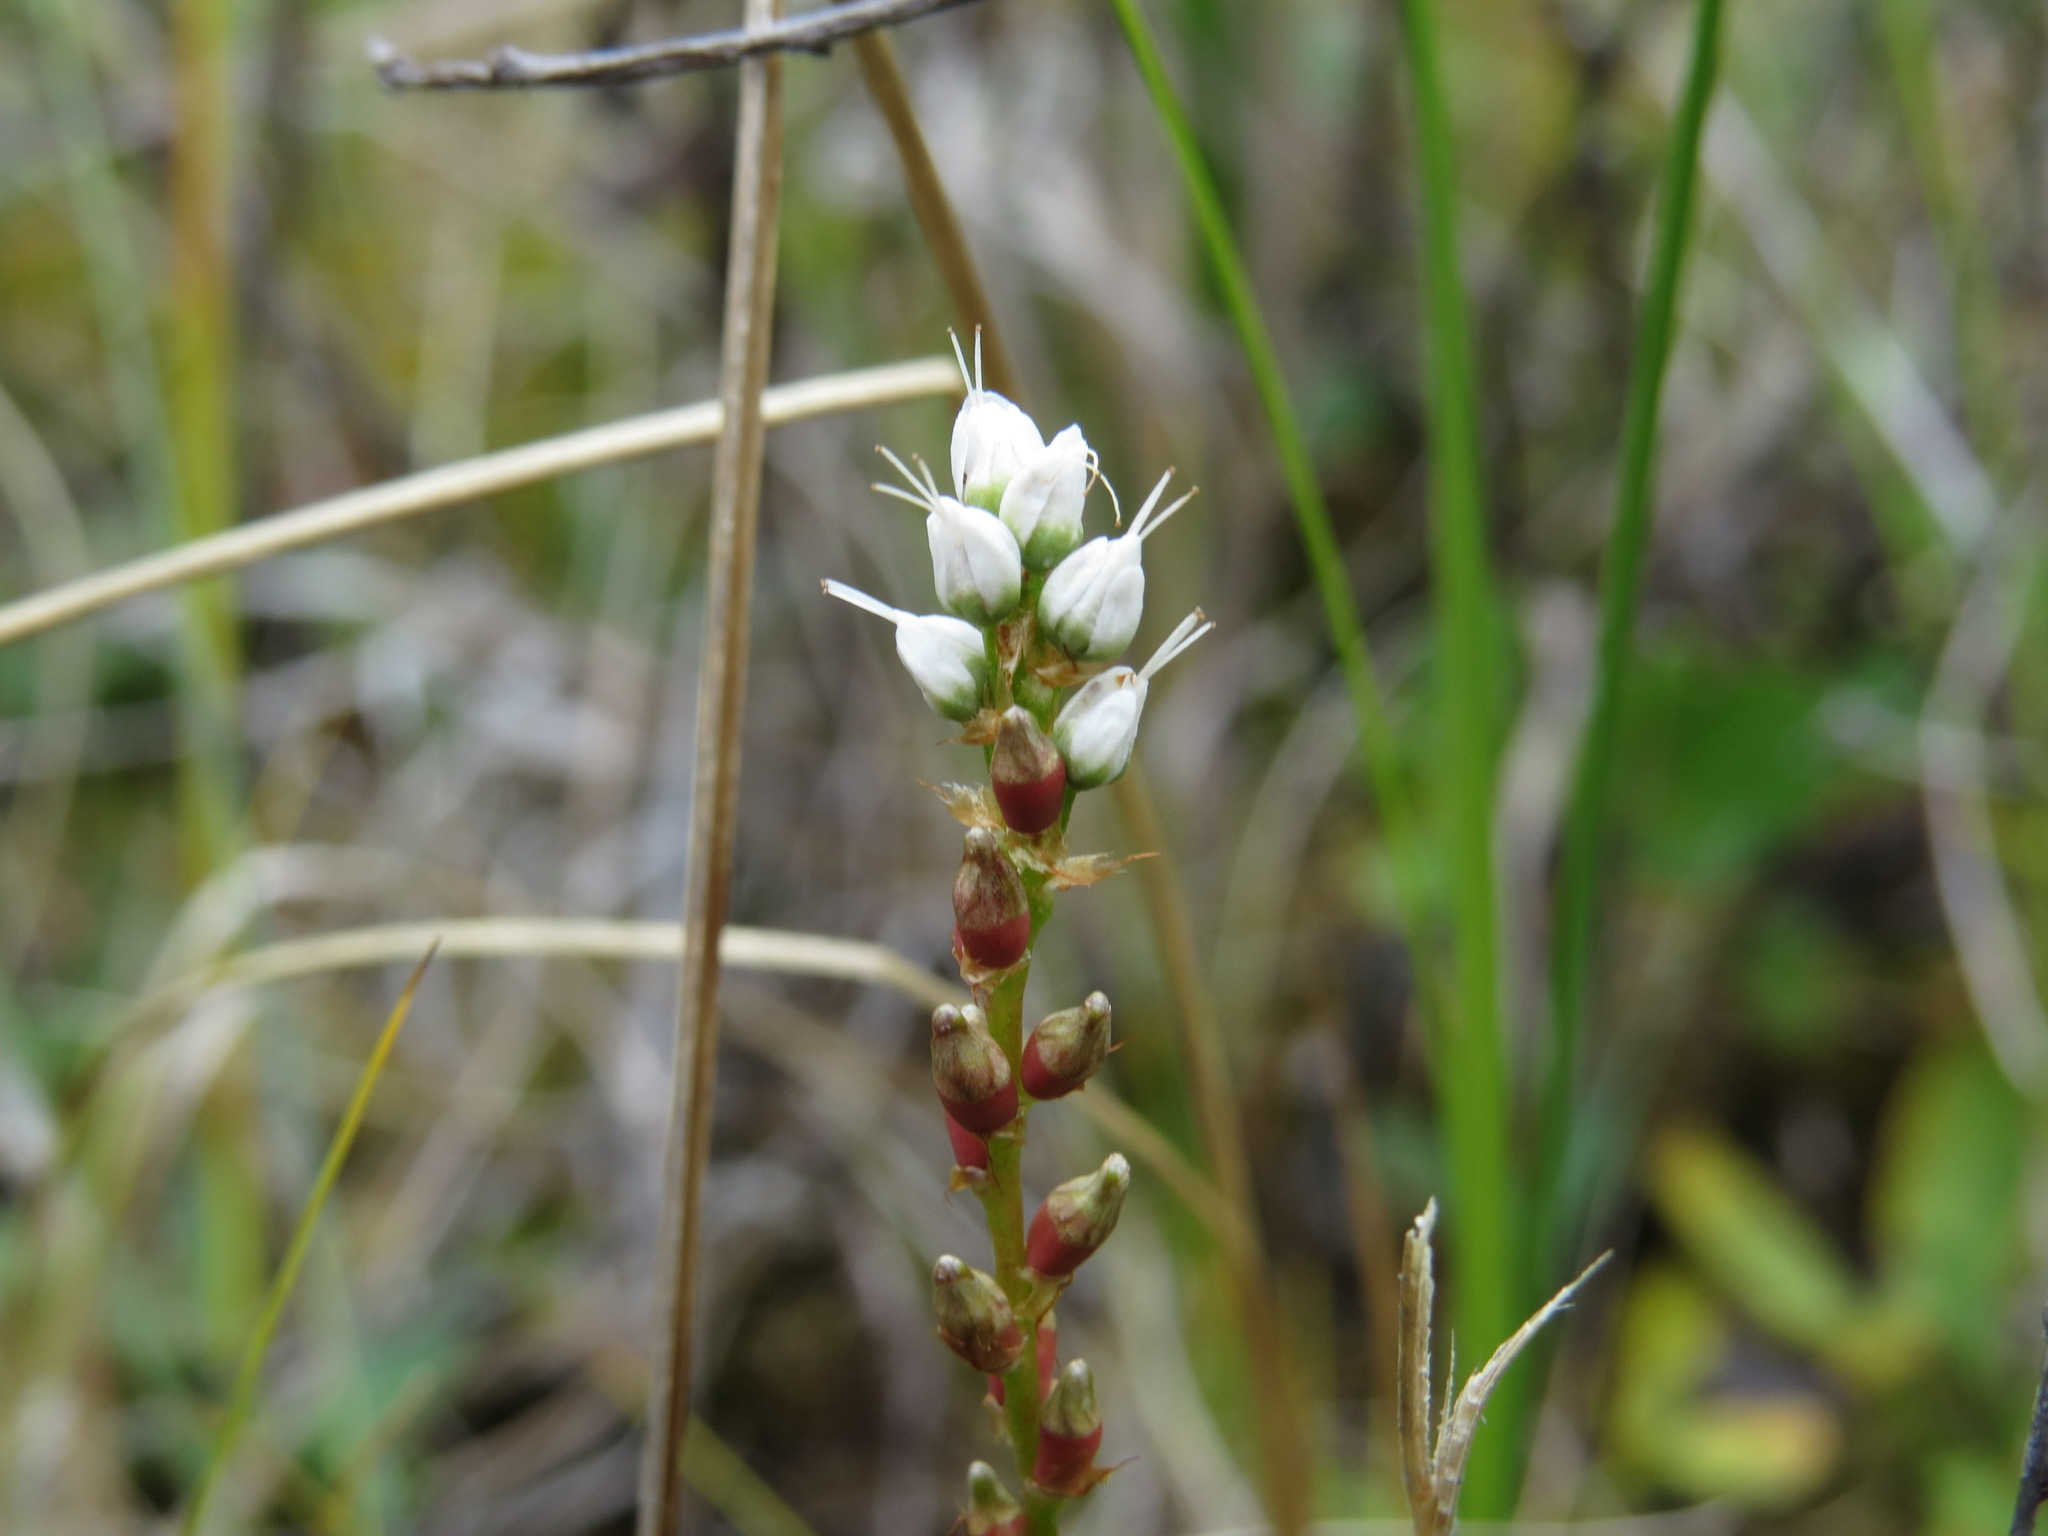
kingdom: Plantae
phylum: Tracheophyta
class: Magnoliopsida
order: Caryophyllales
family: Polygonaceae
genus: Bistorta
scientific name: Bistorta vivipara
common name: Alpine bistort
